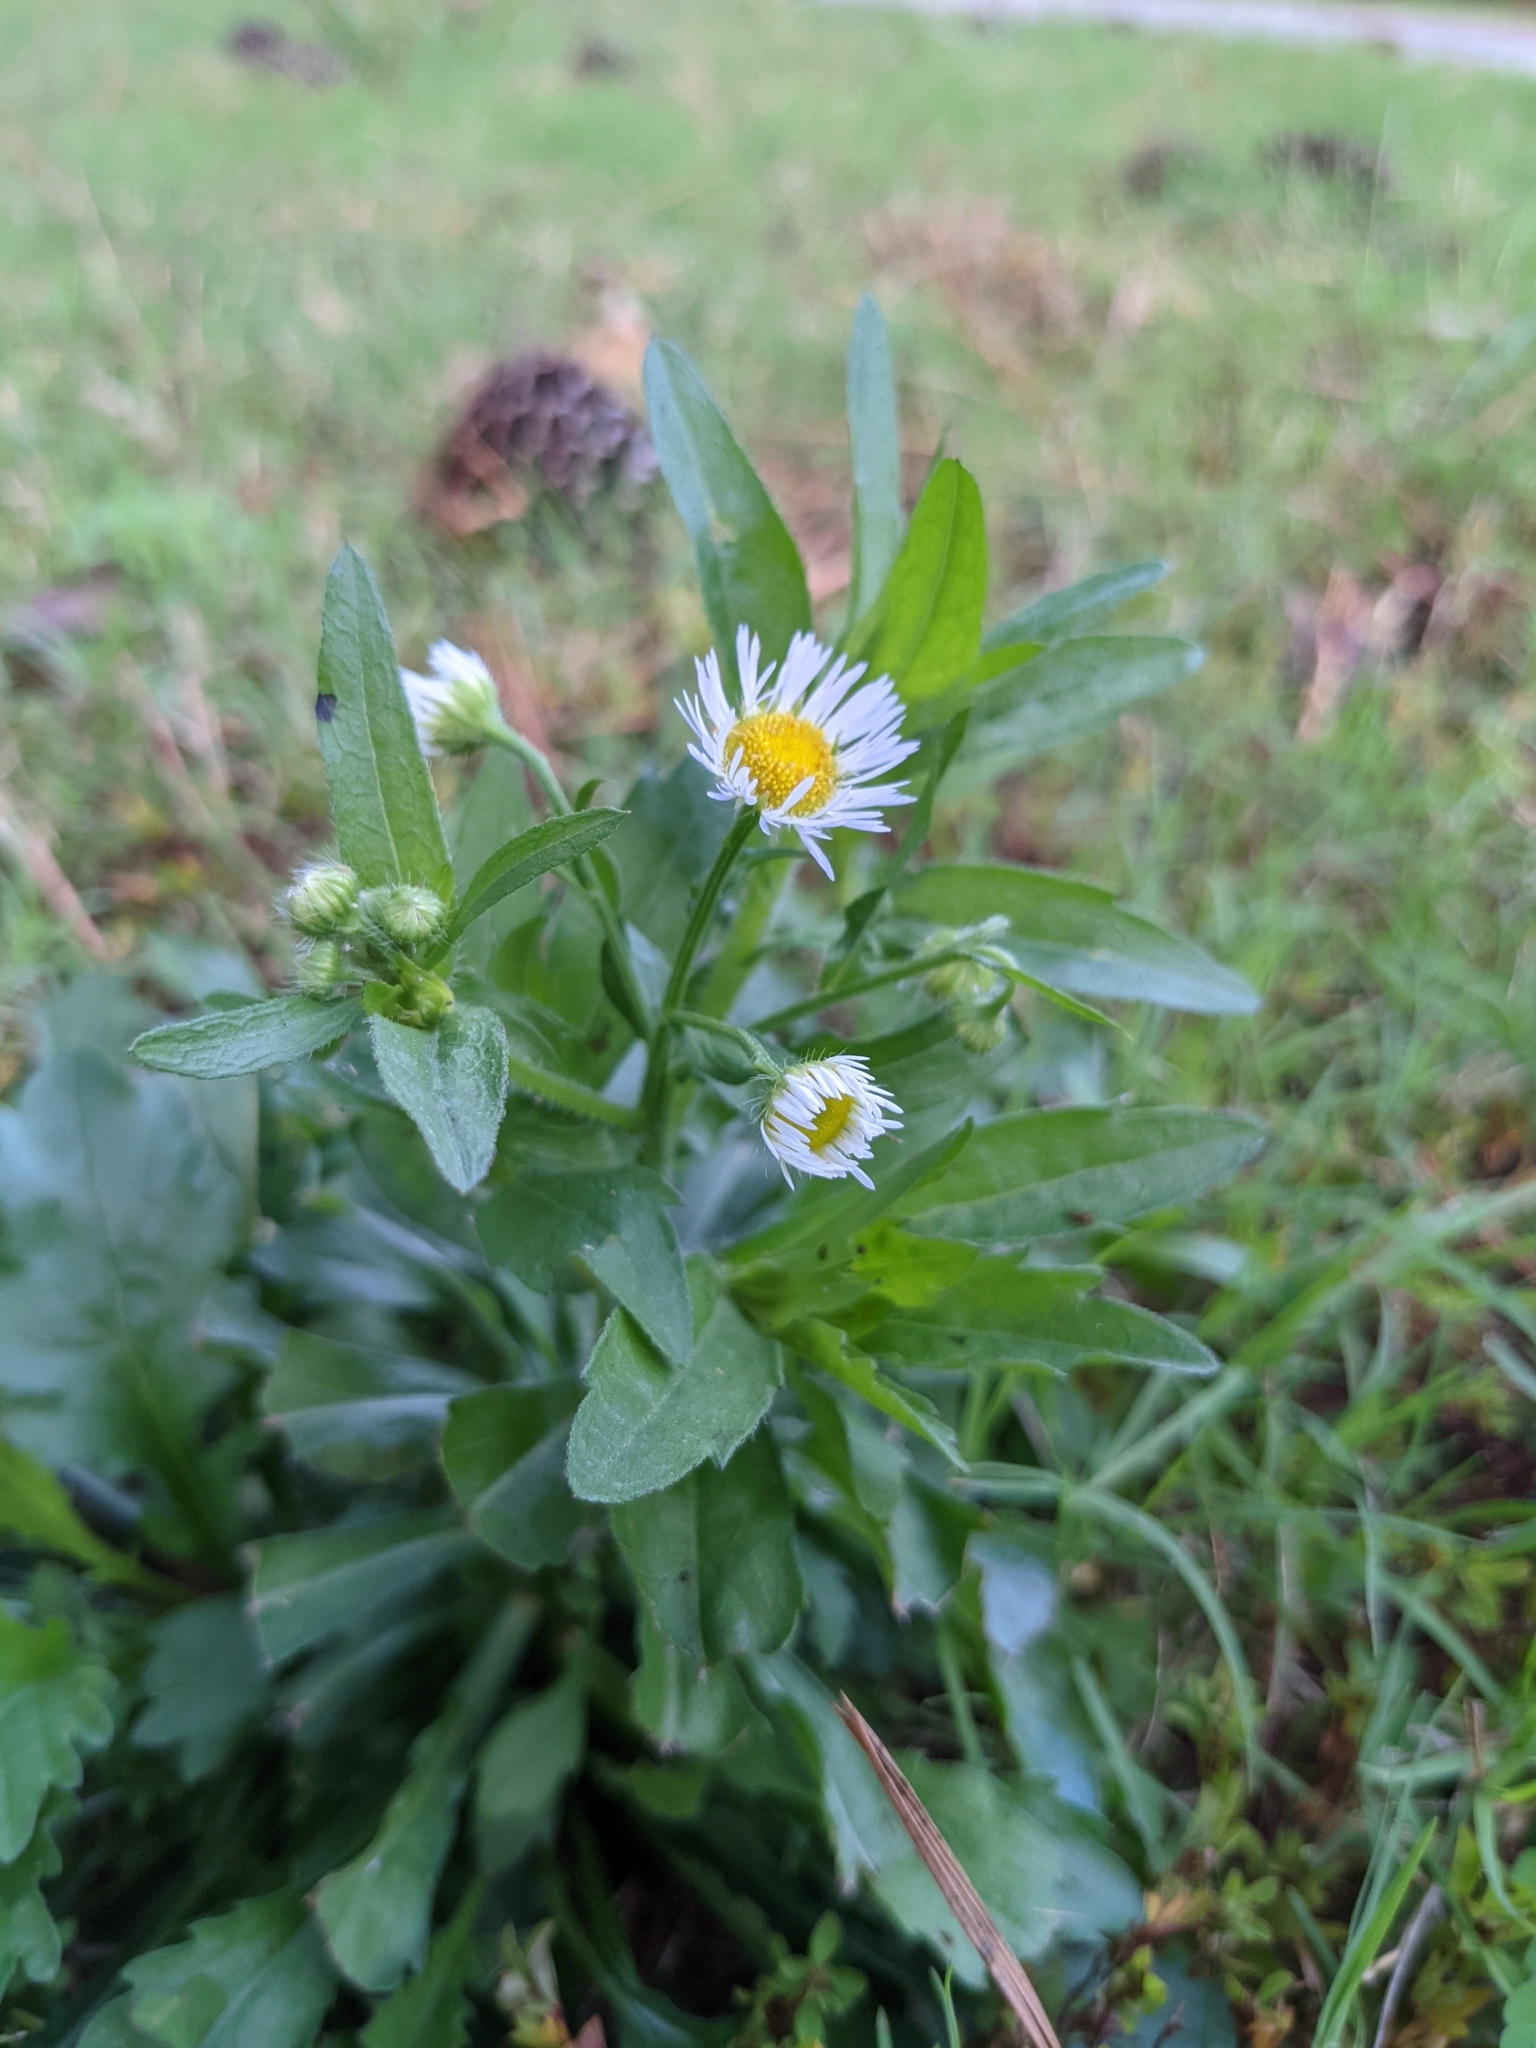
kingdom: Plantae
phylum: Tracheophyta
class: Magnoliopsida
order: Asterales
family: Asteraceae
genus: Erigeron
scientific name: Erigeron annuus
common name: Tall fleabane
